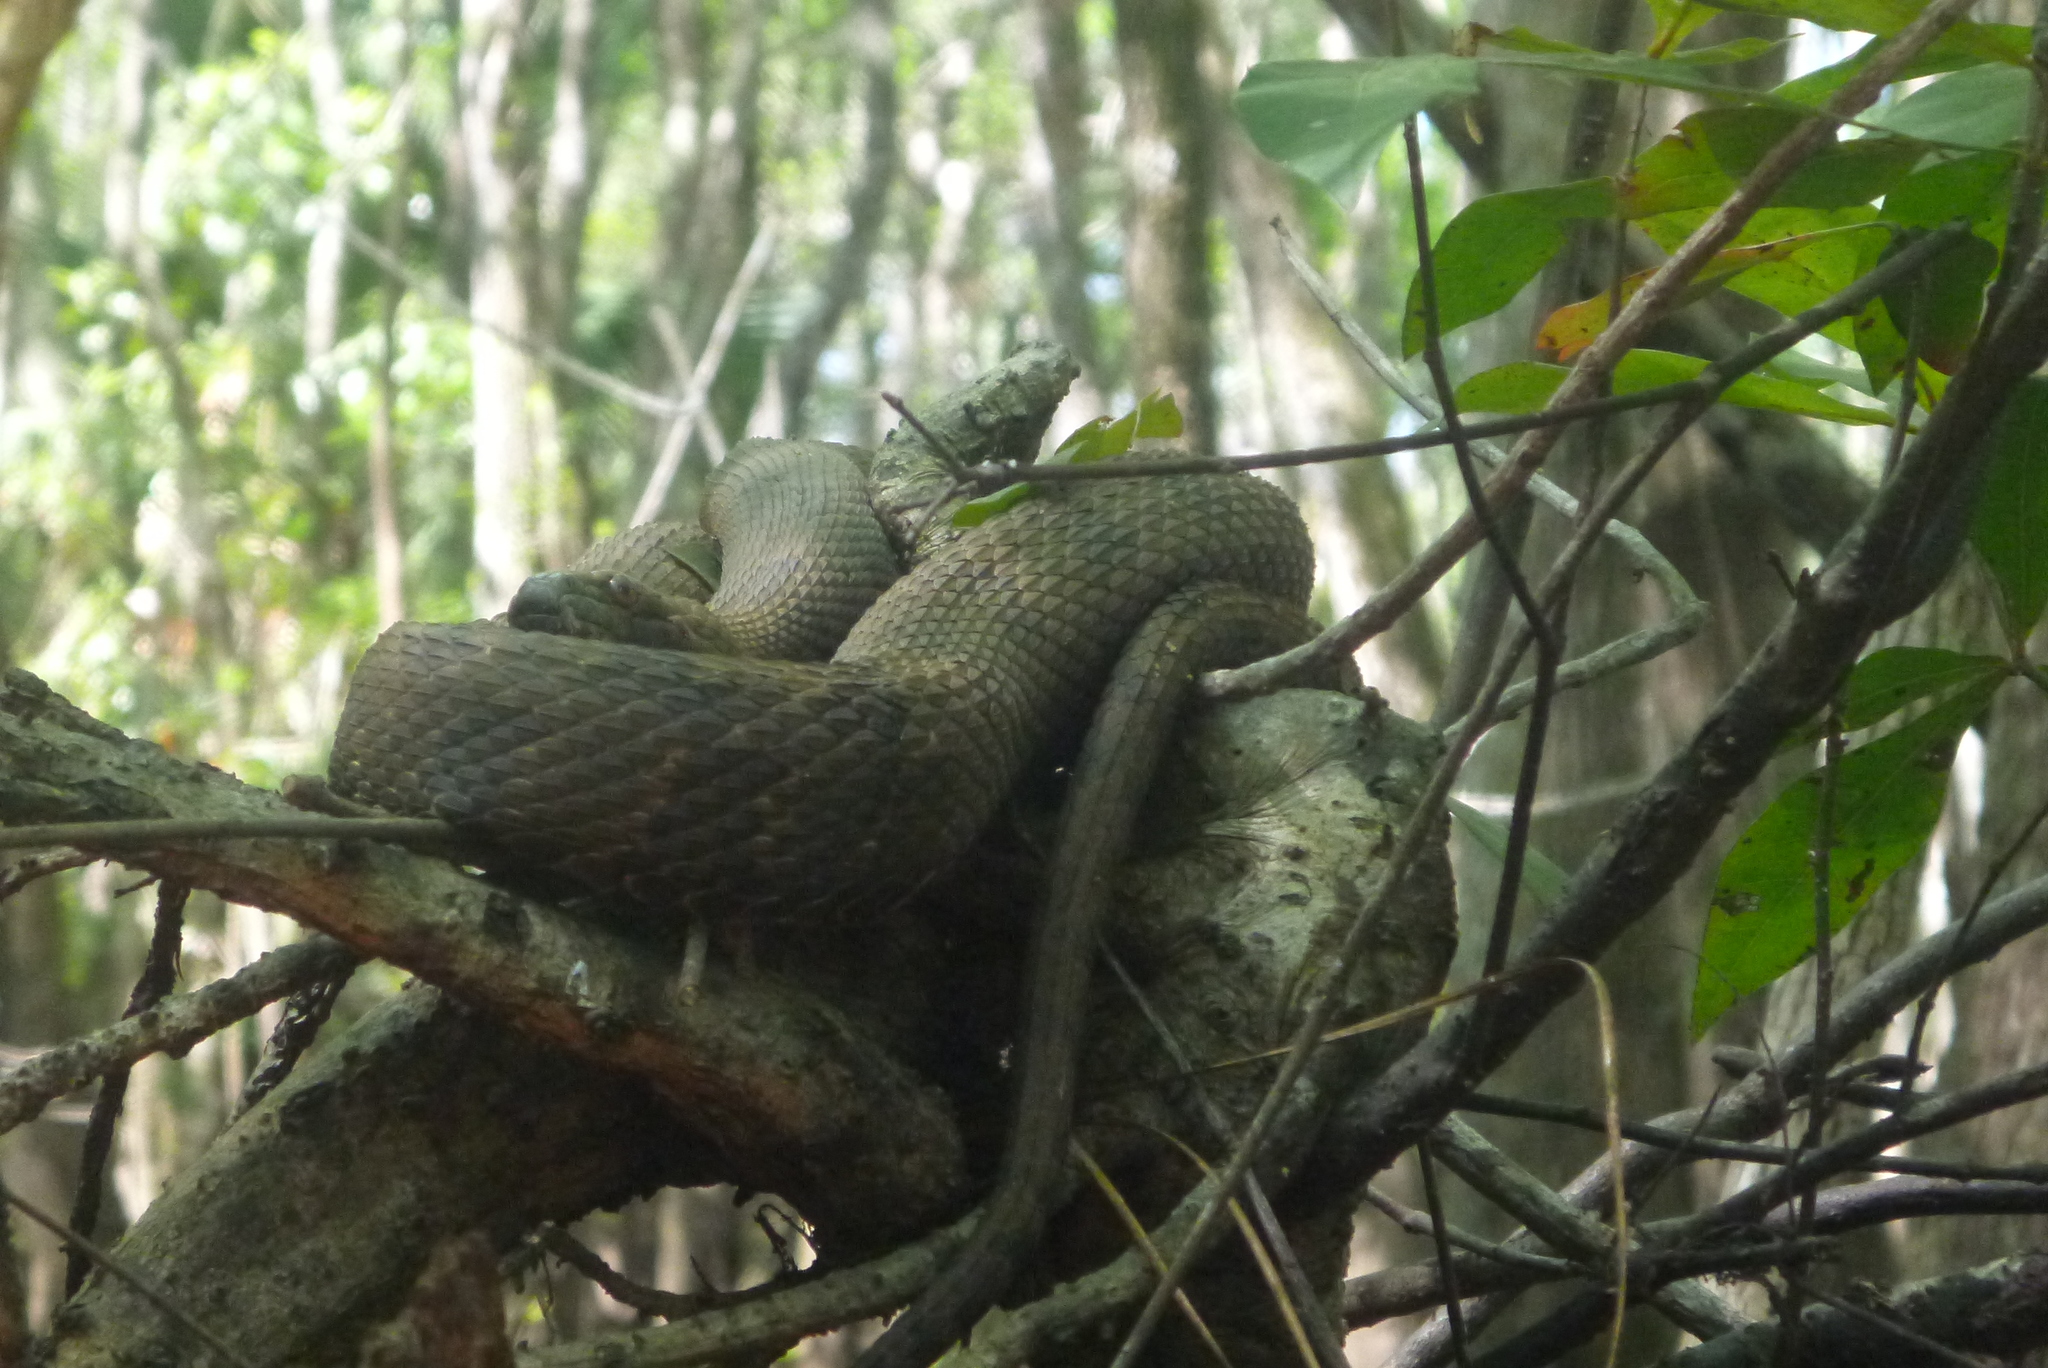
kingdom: Animalia
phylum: Chordata
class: Squamata
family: Colubridae
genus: Nerodia
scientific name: Nerodia taxispilota
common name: Brown water snake
